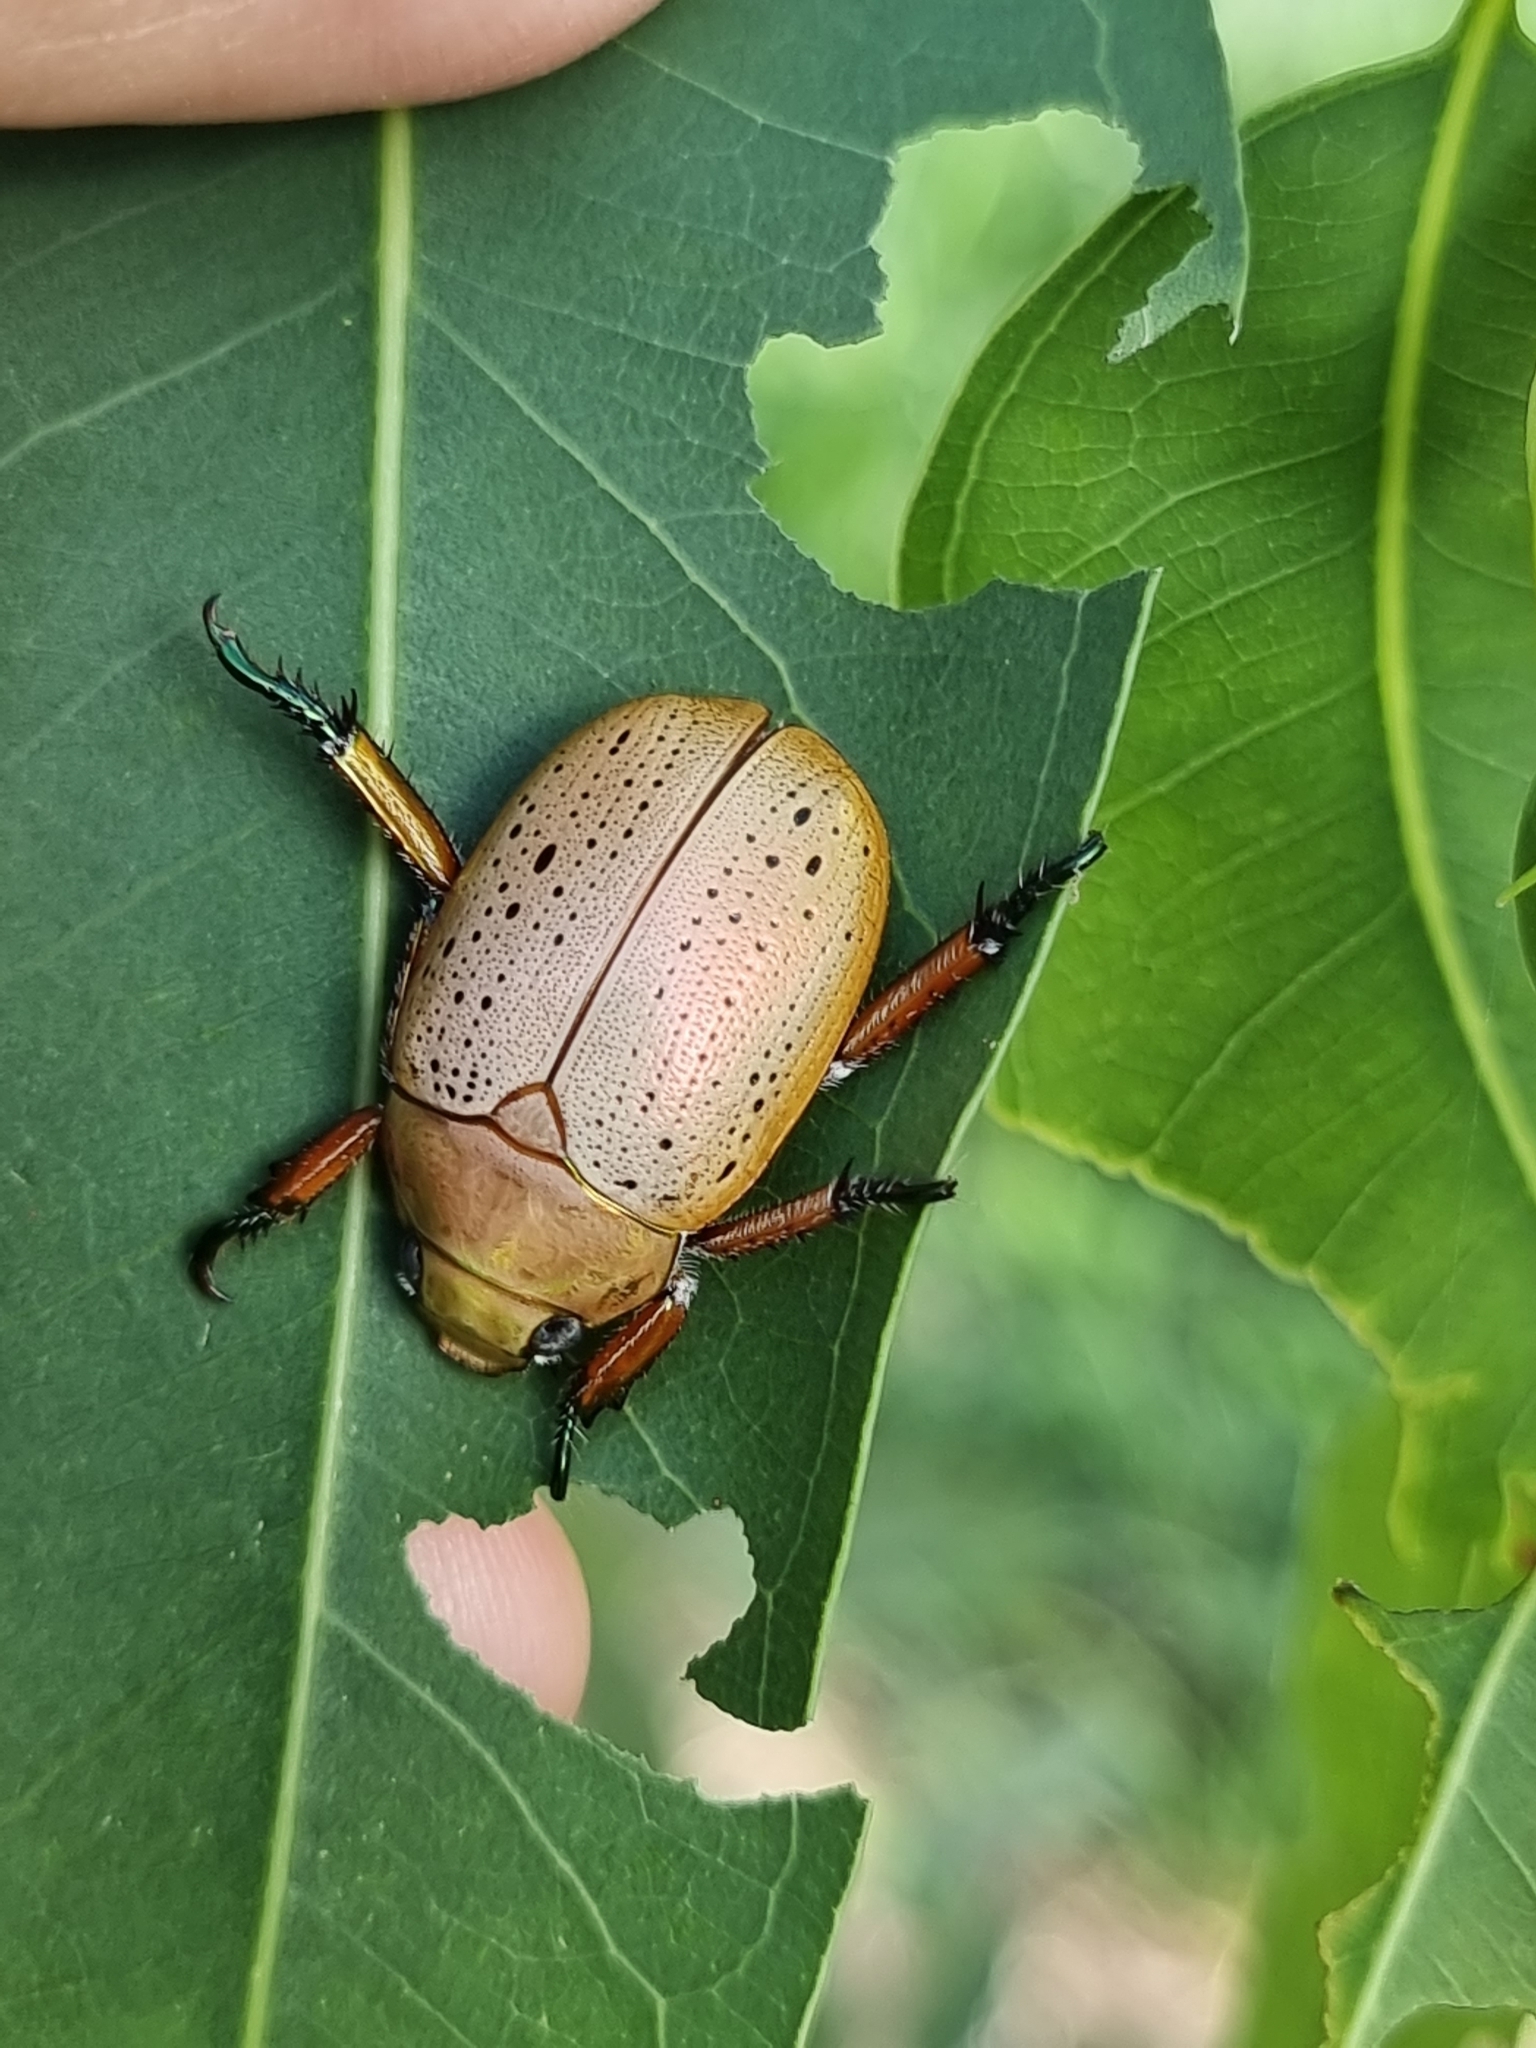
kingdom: Animalia
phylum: Arthropoda
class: Insecta
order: Coleoptera
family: Scarabaeidae
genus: Anoplognathus
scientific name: Anoplognathus porosus
